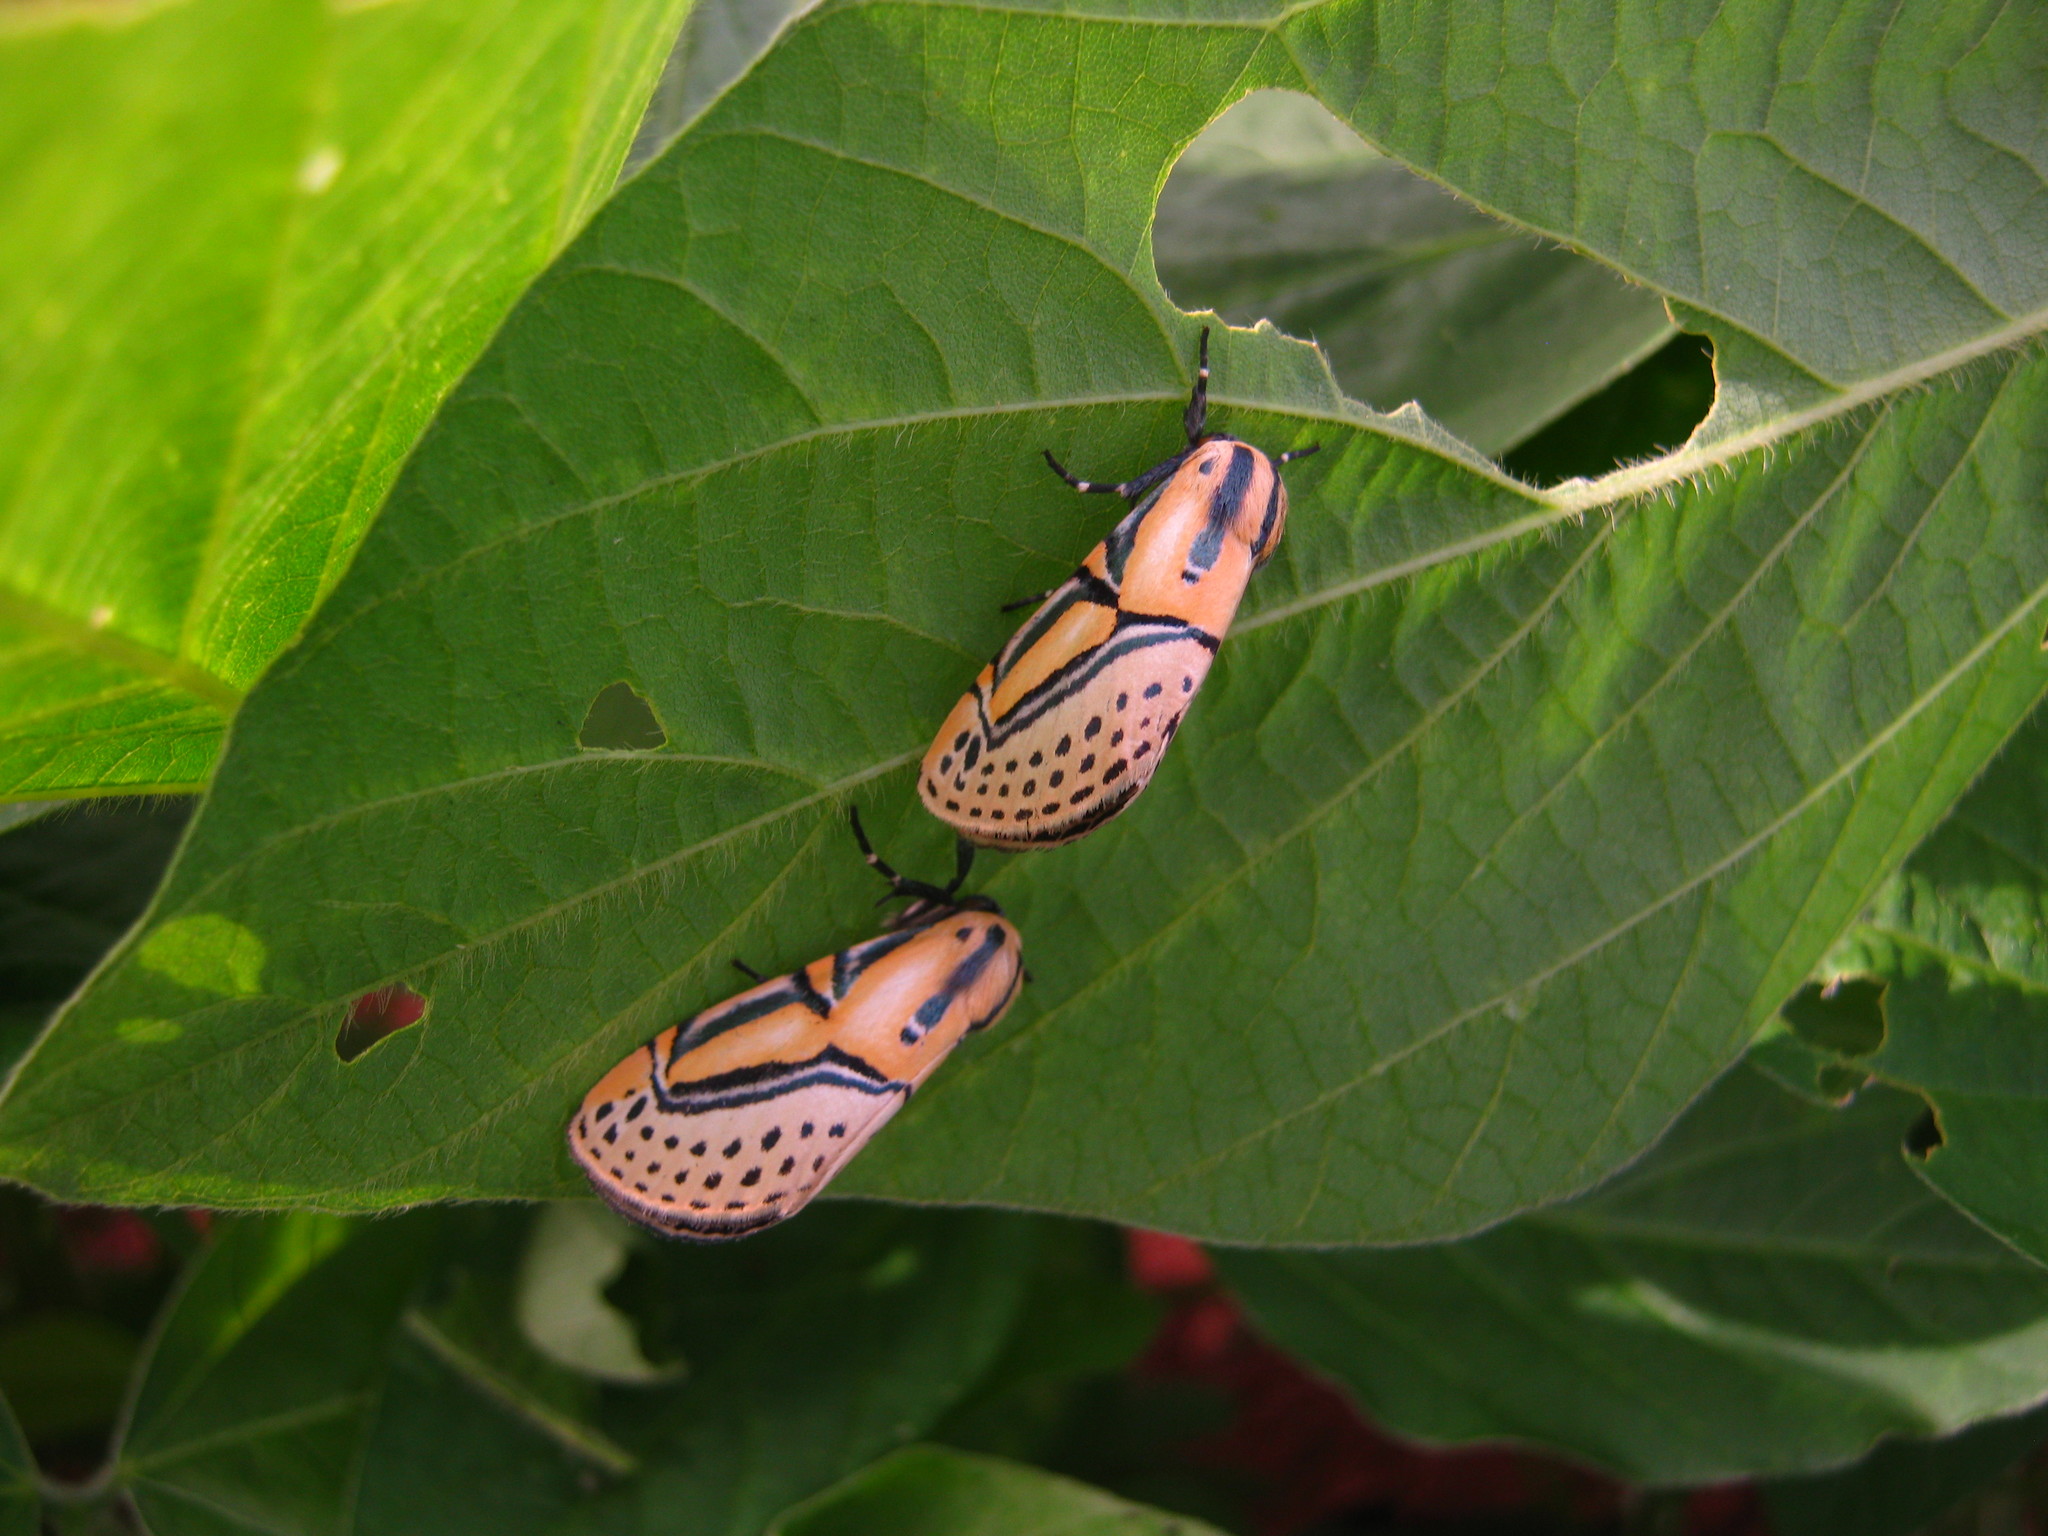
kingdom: Animalia
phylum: Arthropoda
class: Insecta
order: Lepidoptera
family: Erebidae
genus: Diphthera
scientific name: Diphthera festiva
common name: Hieroglyphic moth
